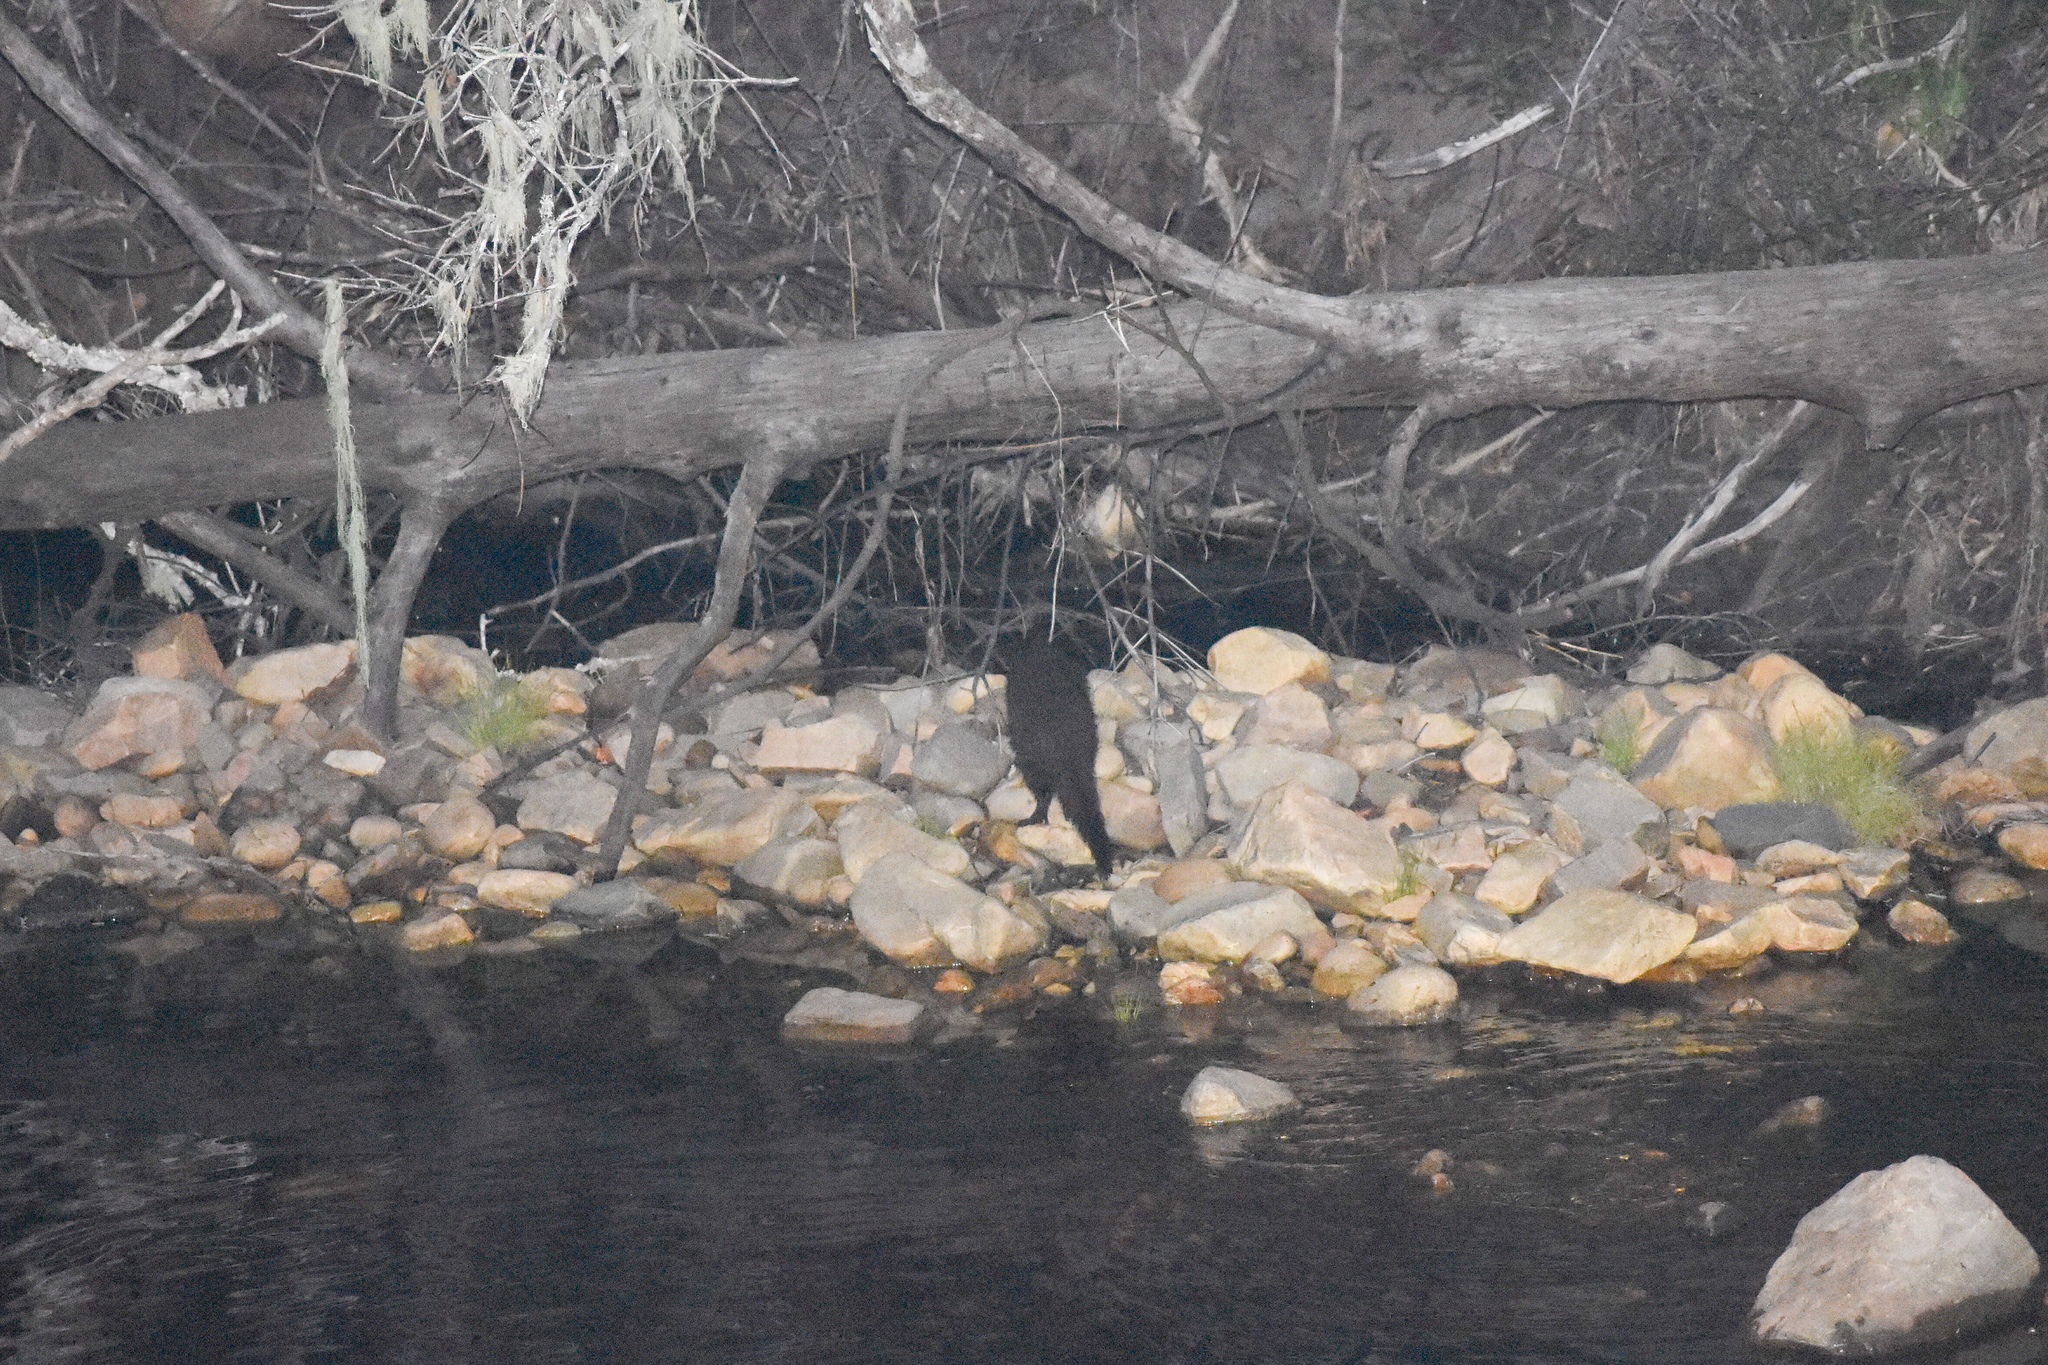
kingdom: Animalia
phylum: Chordata
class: Mammalia
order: Carnivora
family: Herpestidae
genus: Atilax
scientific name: Atilax paludinosus
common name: Marsh mongoose
